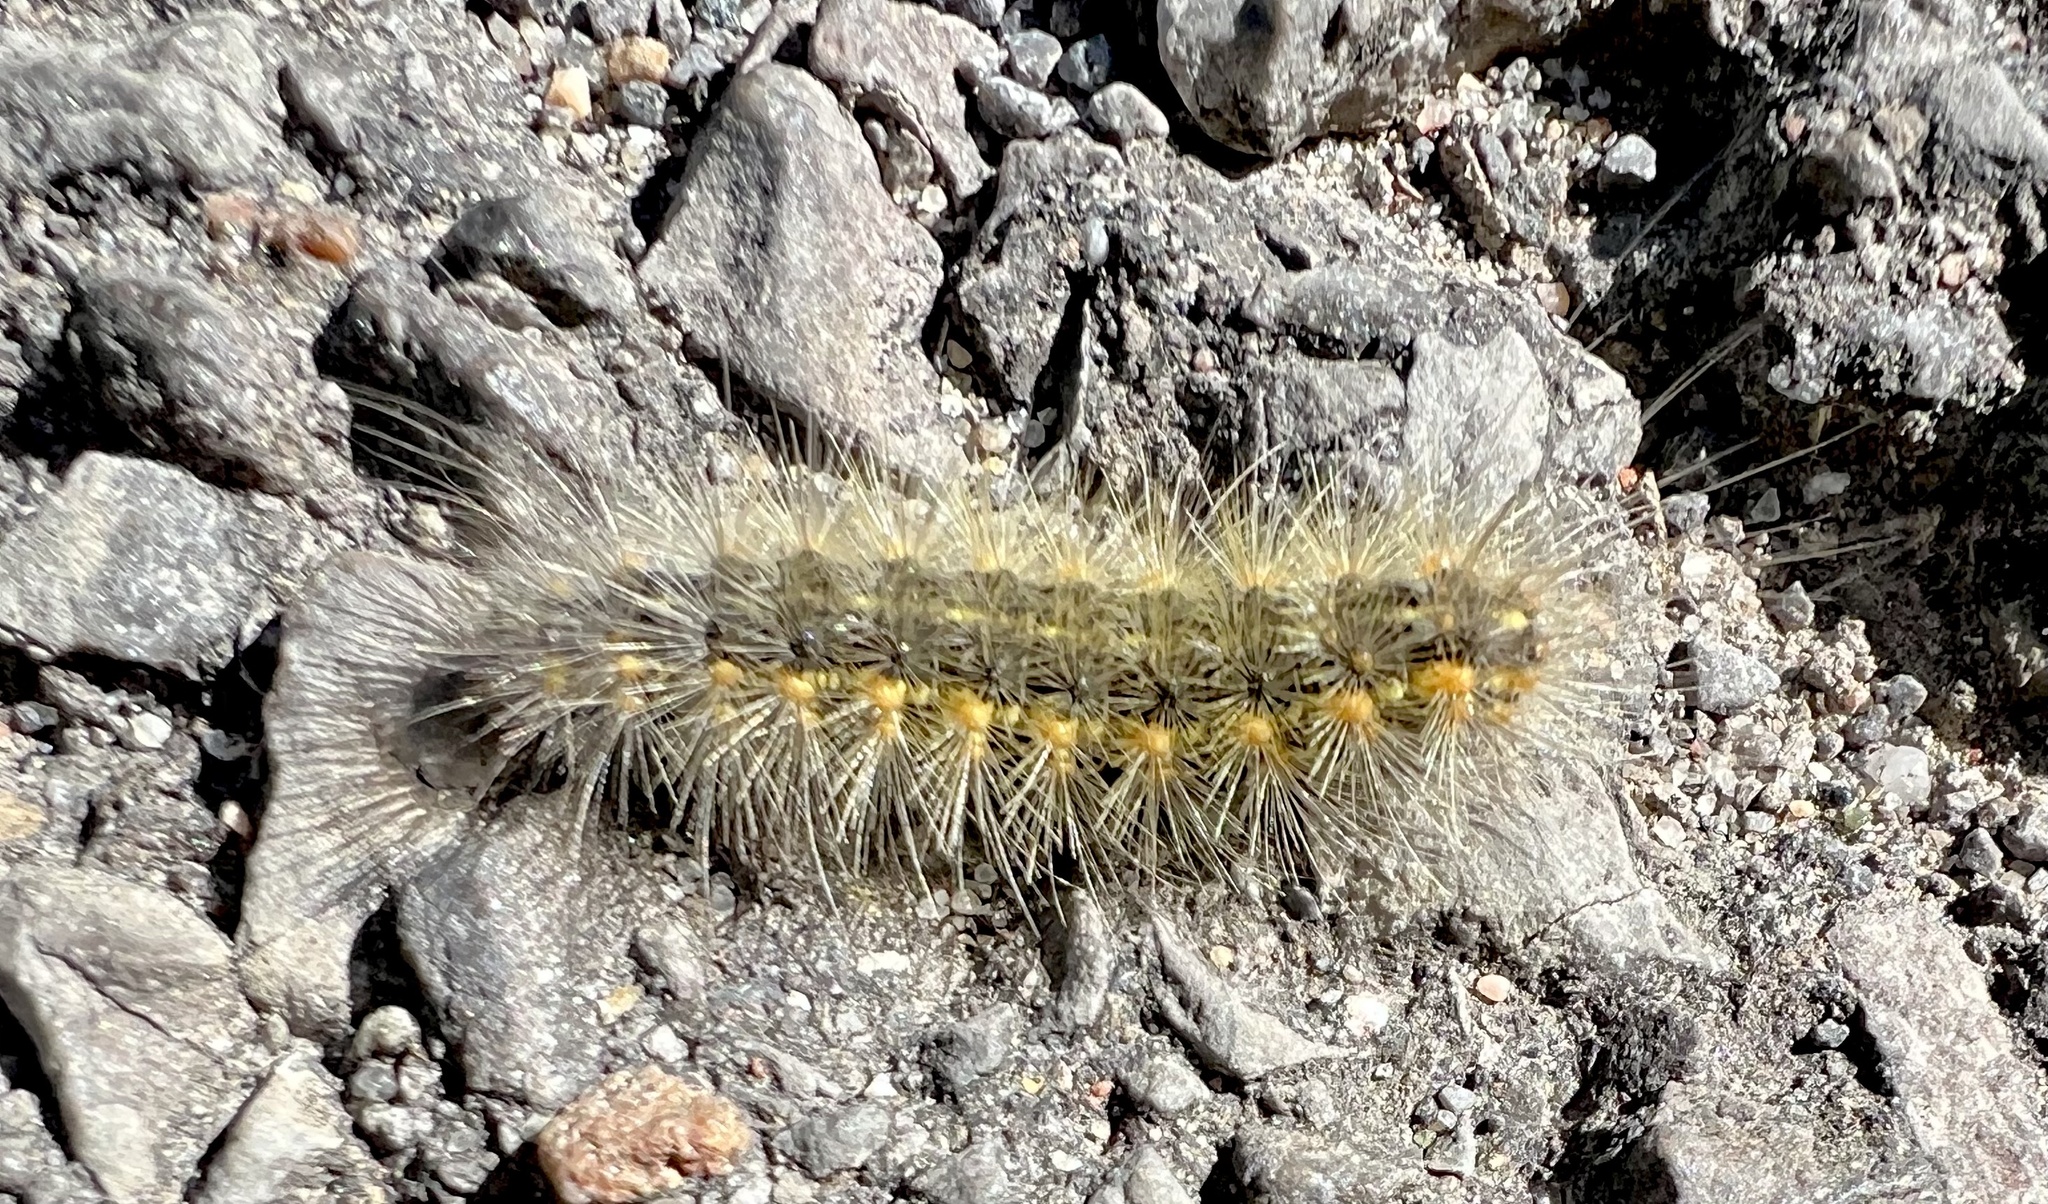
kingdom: Animalia
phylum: Arthropoda
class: Insecta
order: Lepidoptera
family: Erebidae
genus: Estigmene
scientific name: Estigmene acrea
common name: Salt marsh moth
